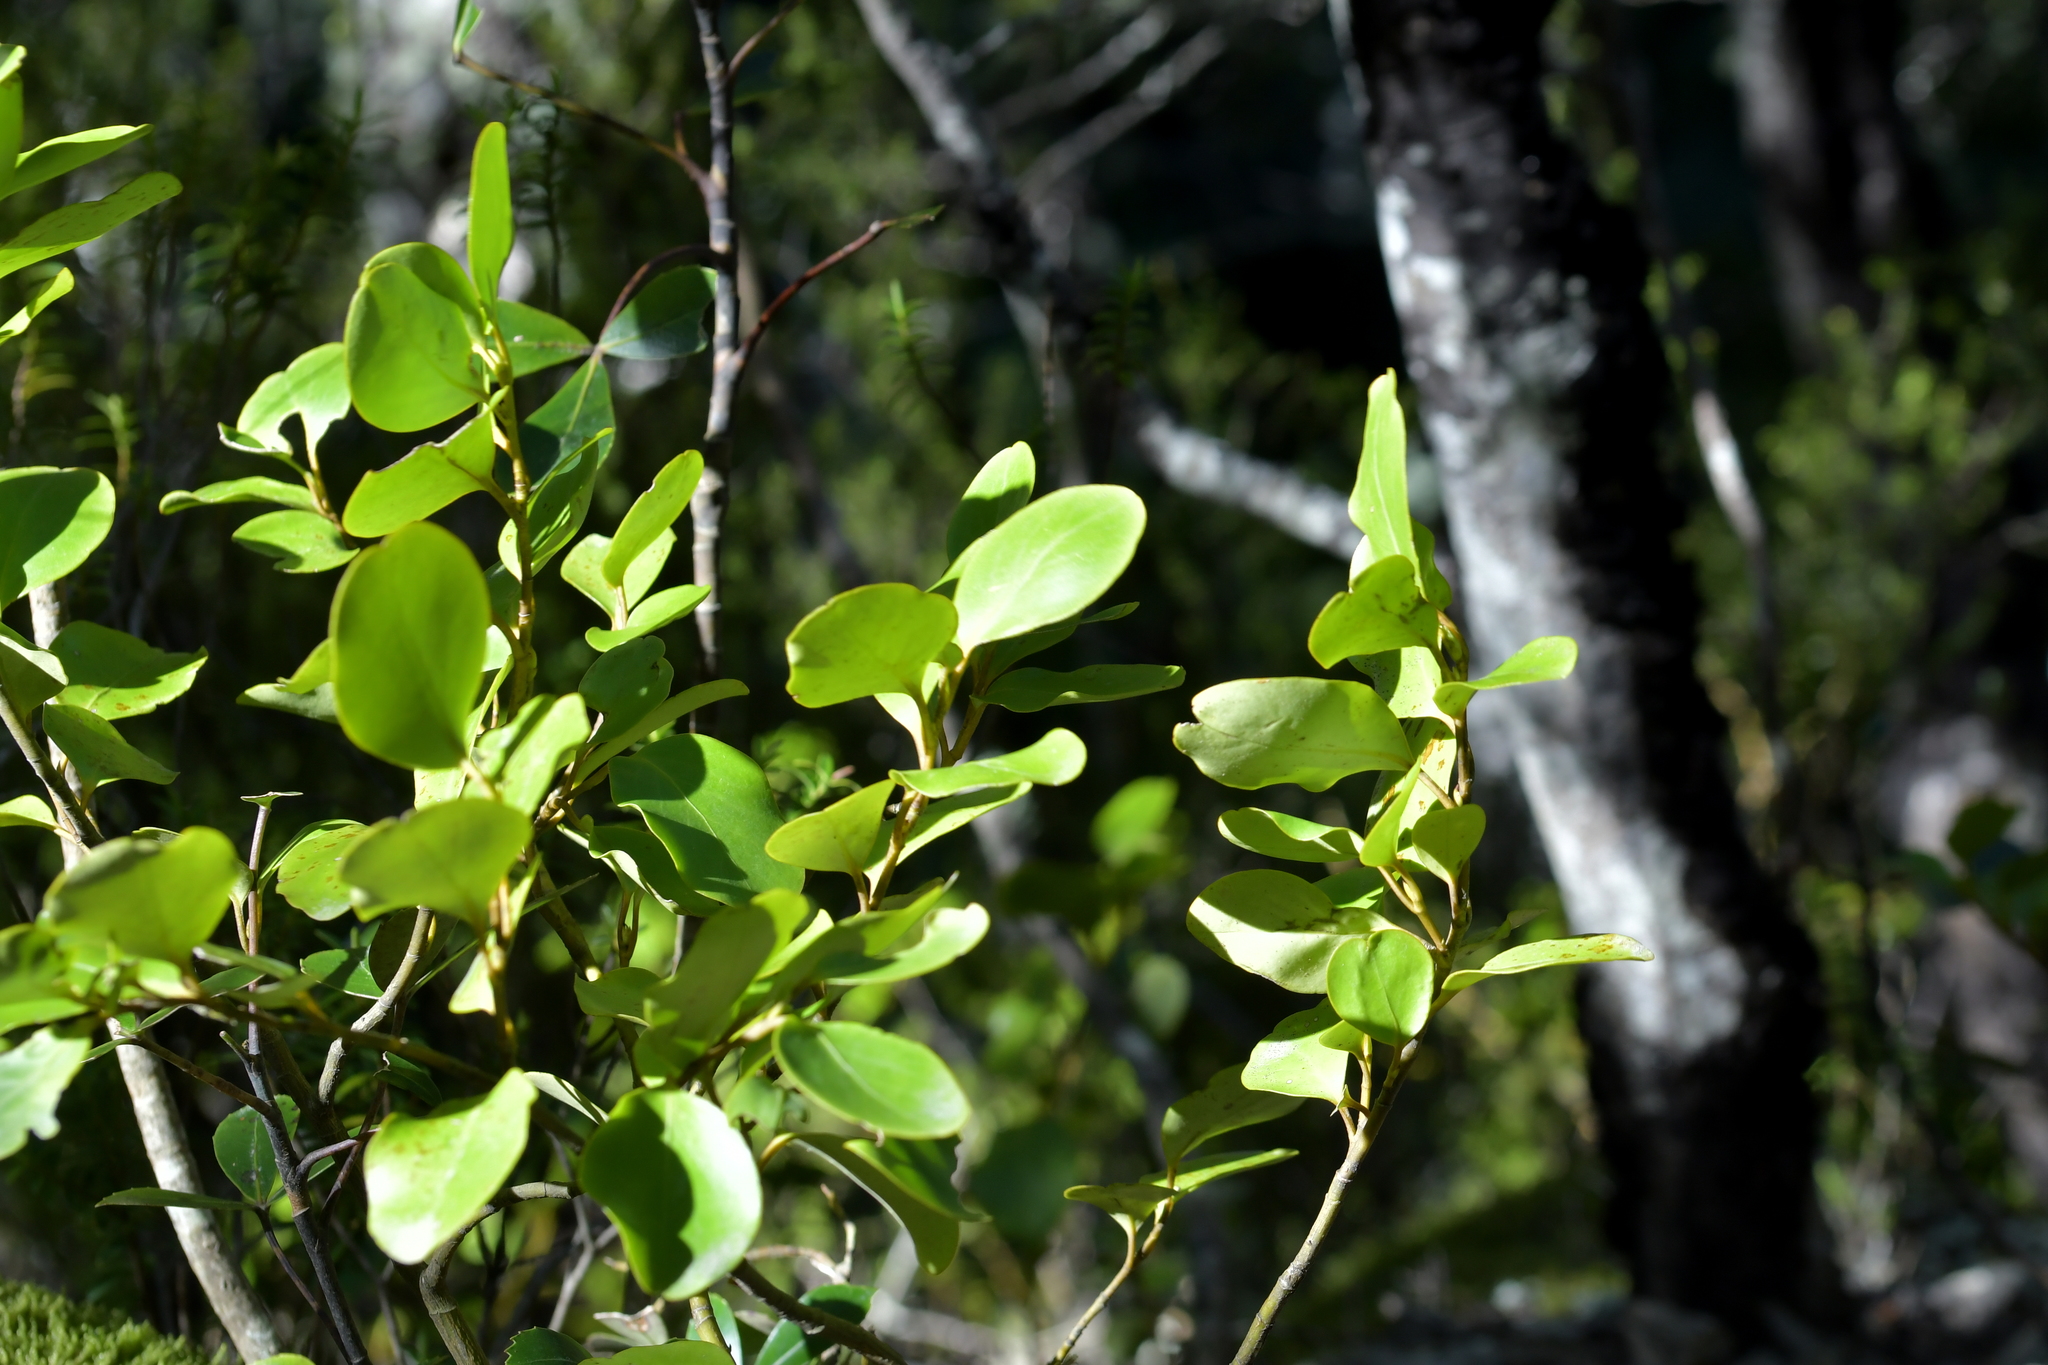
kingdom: Plantae
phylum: Tracheophyta
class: Magnoliopsida
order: Apiales
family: Griseliniaceae
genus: Griselinia
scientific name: Griselinia littoralis
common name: New zealand broadleaf
